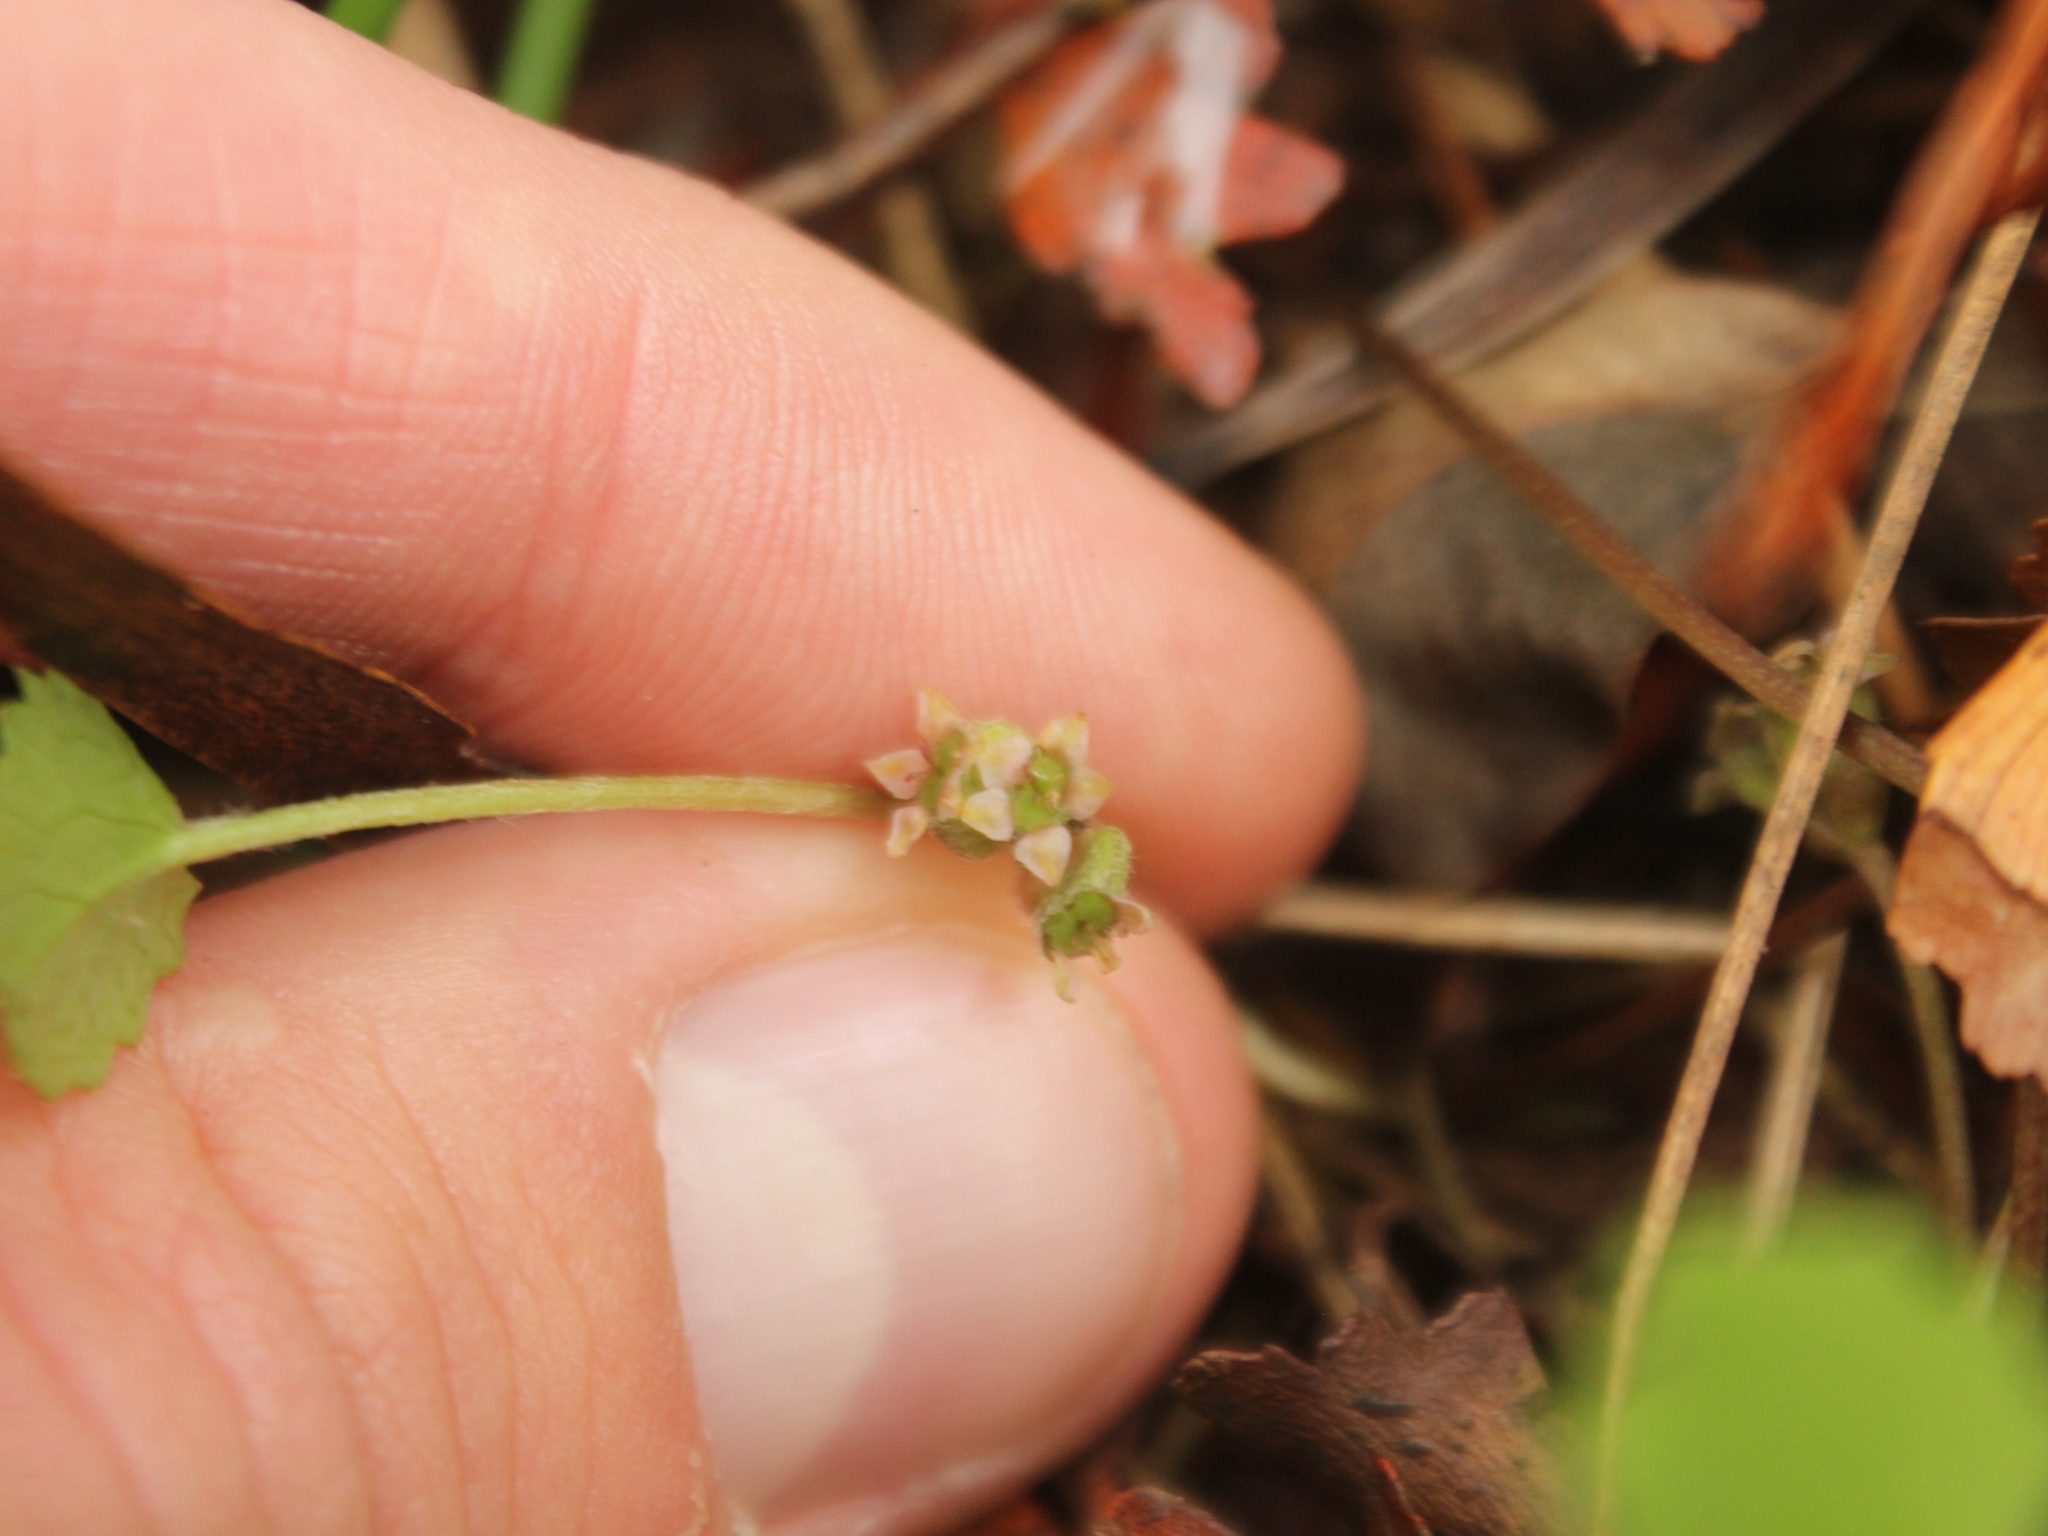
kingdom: Plantae
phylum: Tracheophyta
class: Magnoliopsida
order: Apiales
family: Apiaceae
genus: Centella
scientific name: Centella uniflora
